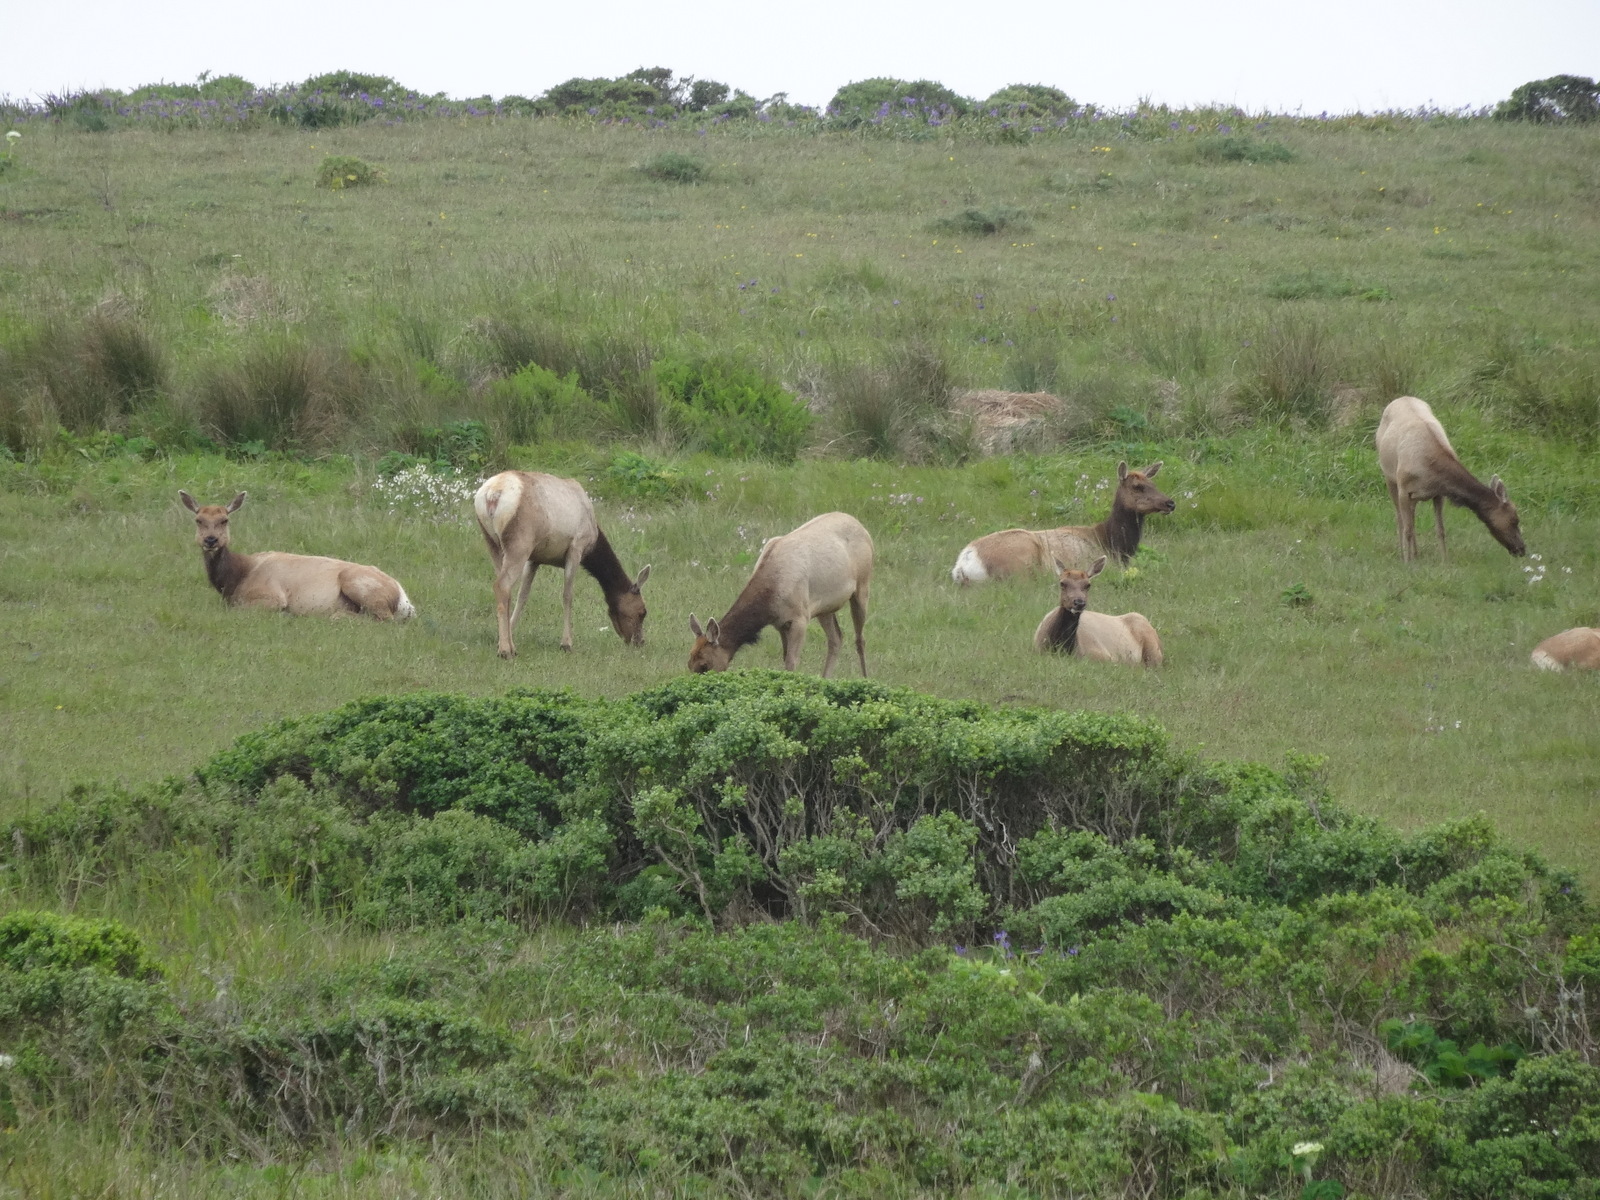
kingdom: Animalia
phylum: Chordata
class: Mammalia
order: Artiodactyla
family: Cervidae
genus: Cervus
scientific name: Cervus elaphus
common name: Red deer
